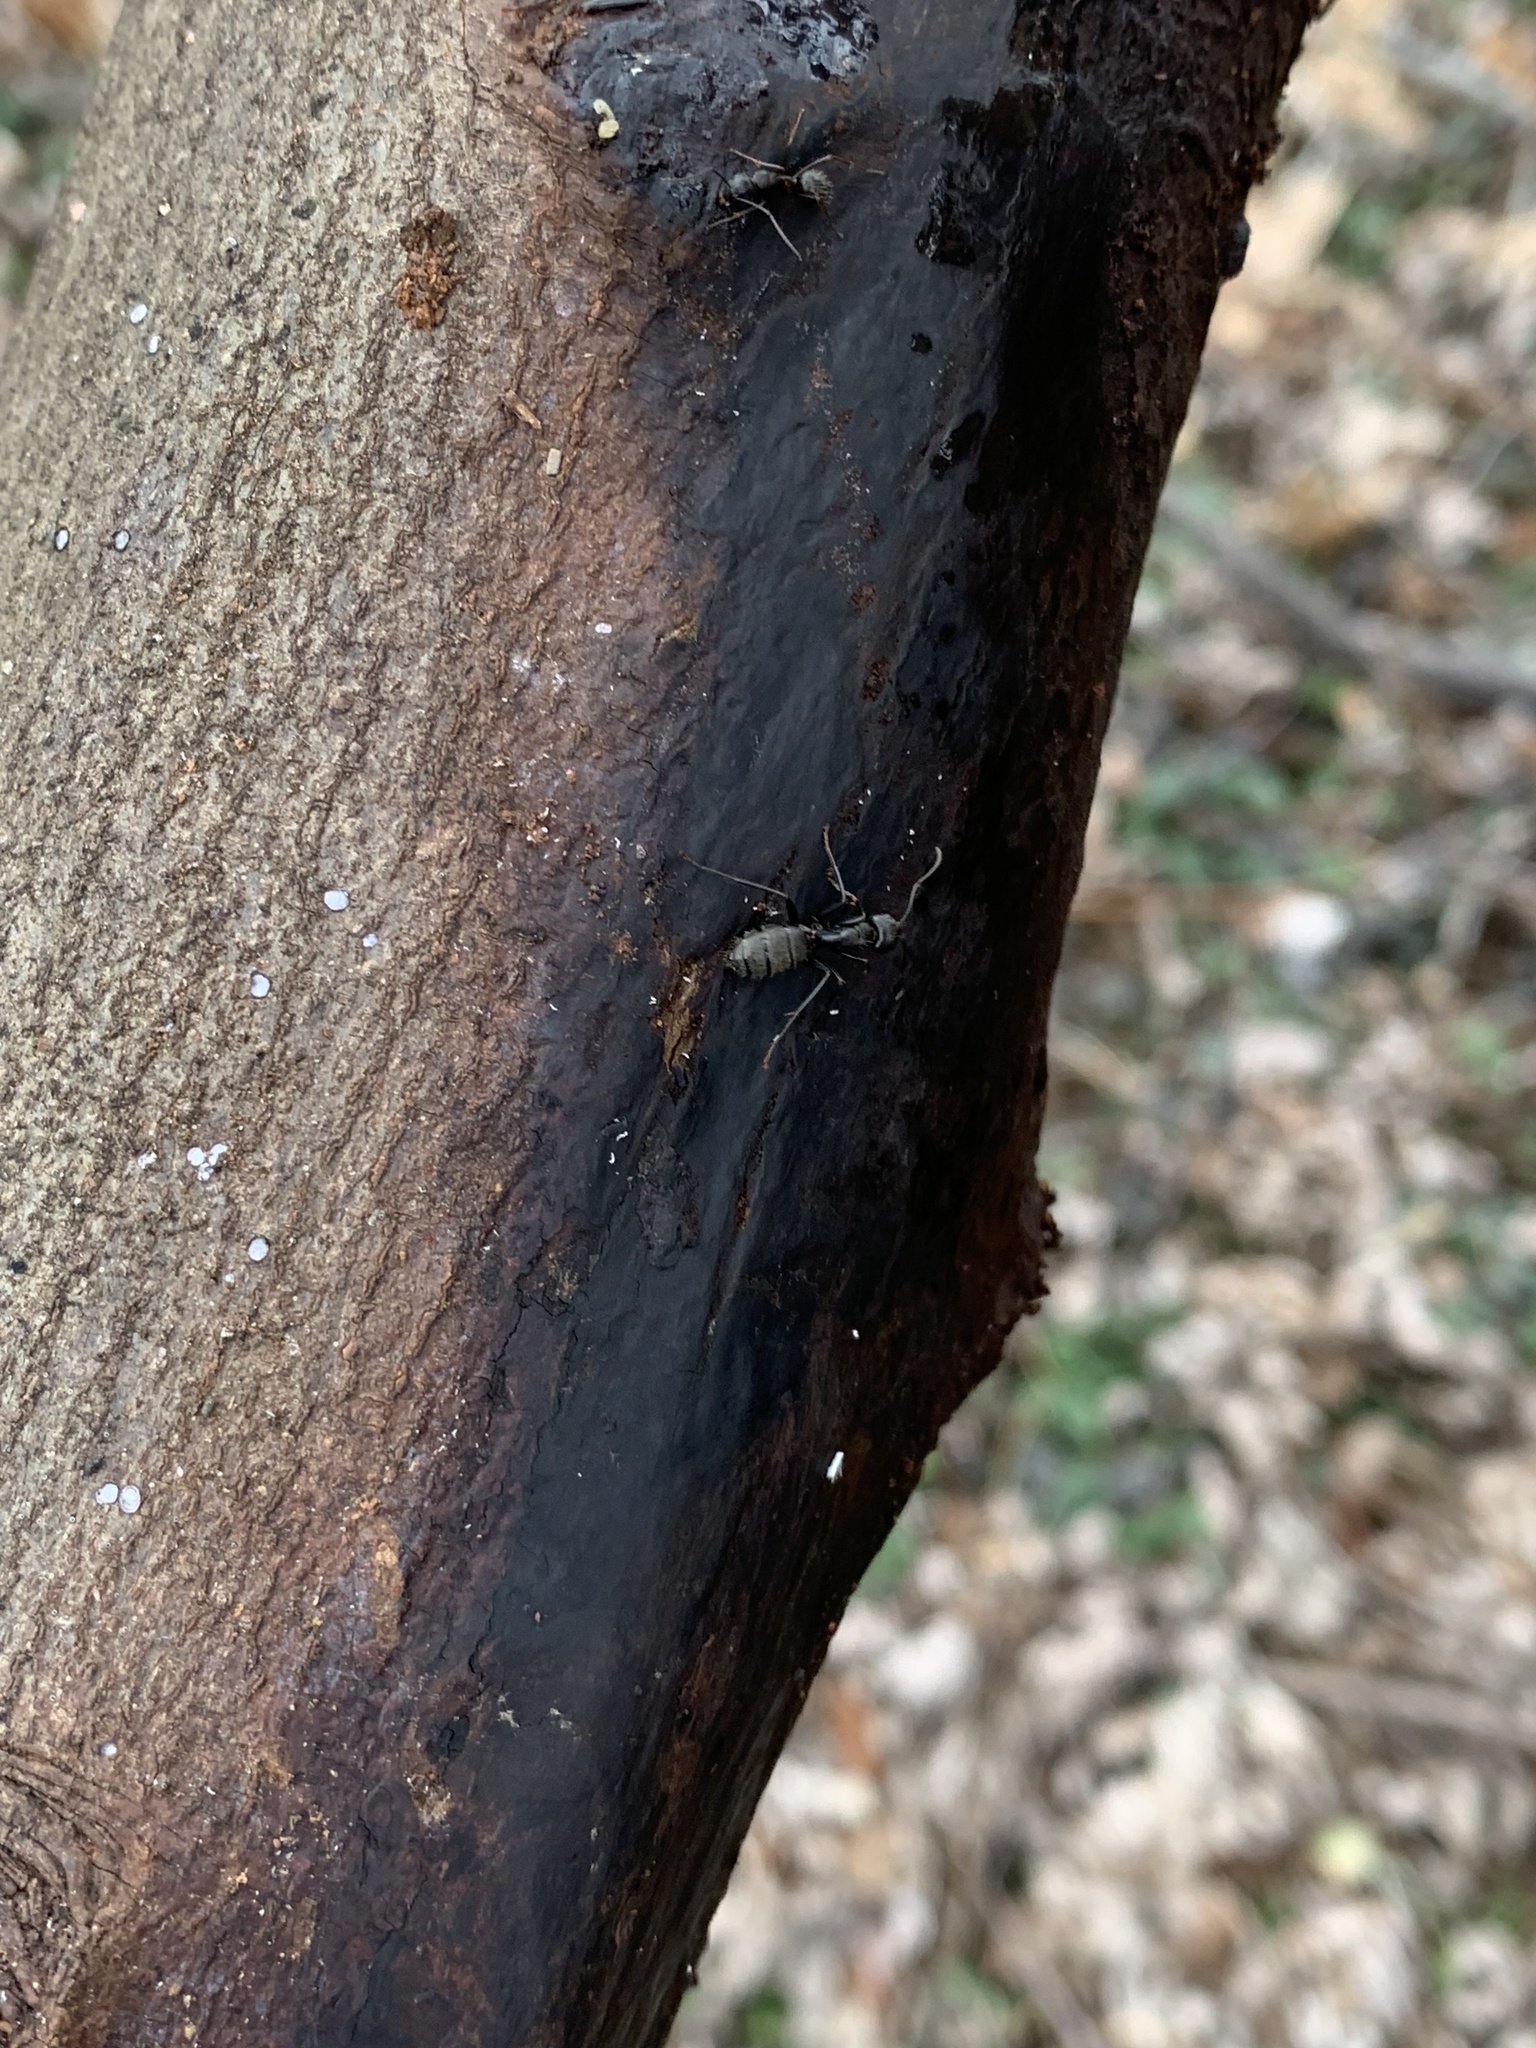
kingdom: Animalia
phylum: Arthropoda
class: Insecta
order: Hymenoptera
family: Formicidae
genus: Camponotus
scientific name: Camponotus pennsylvanicus
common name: Black carpenter ant
